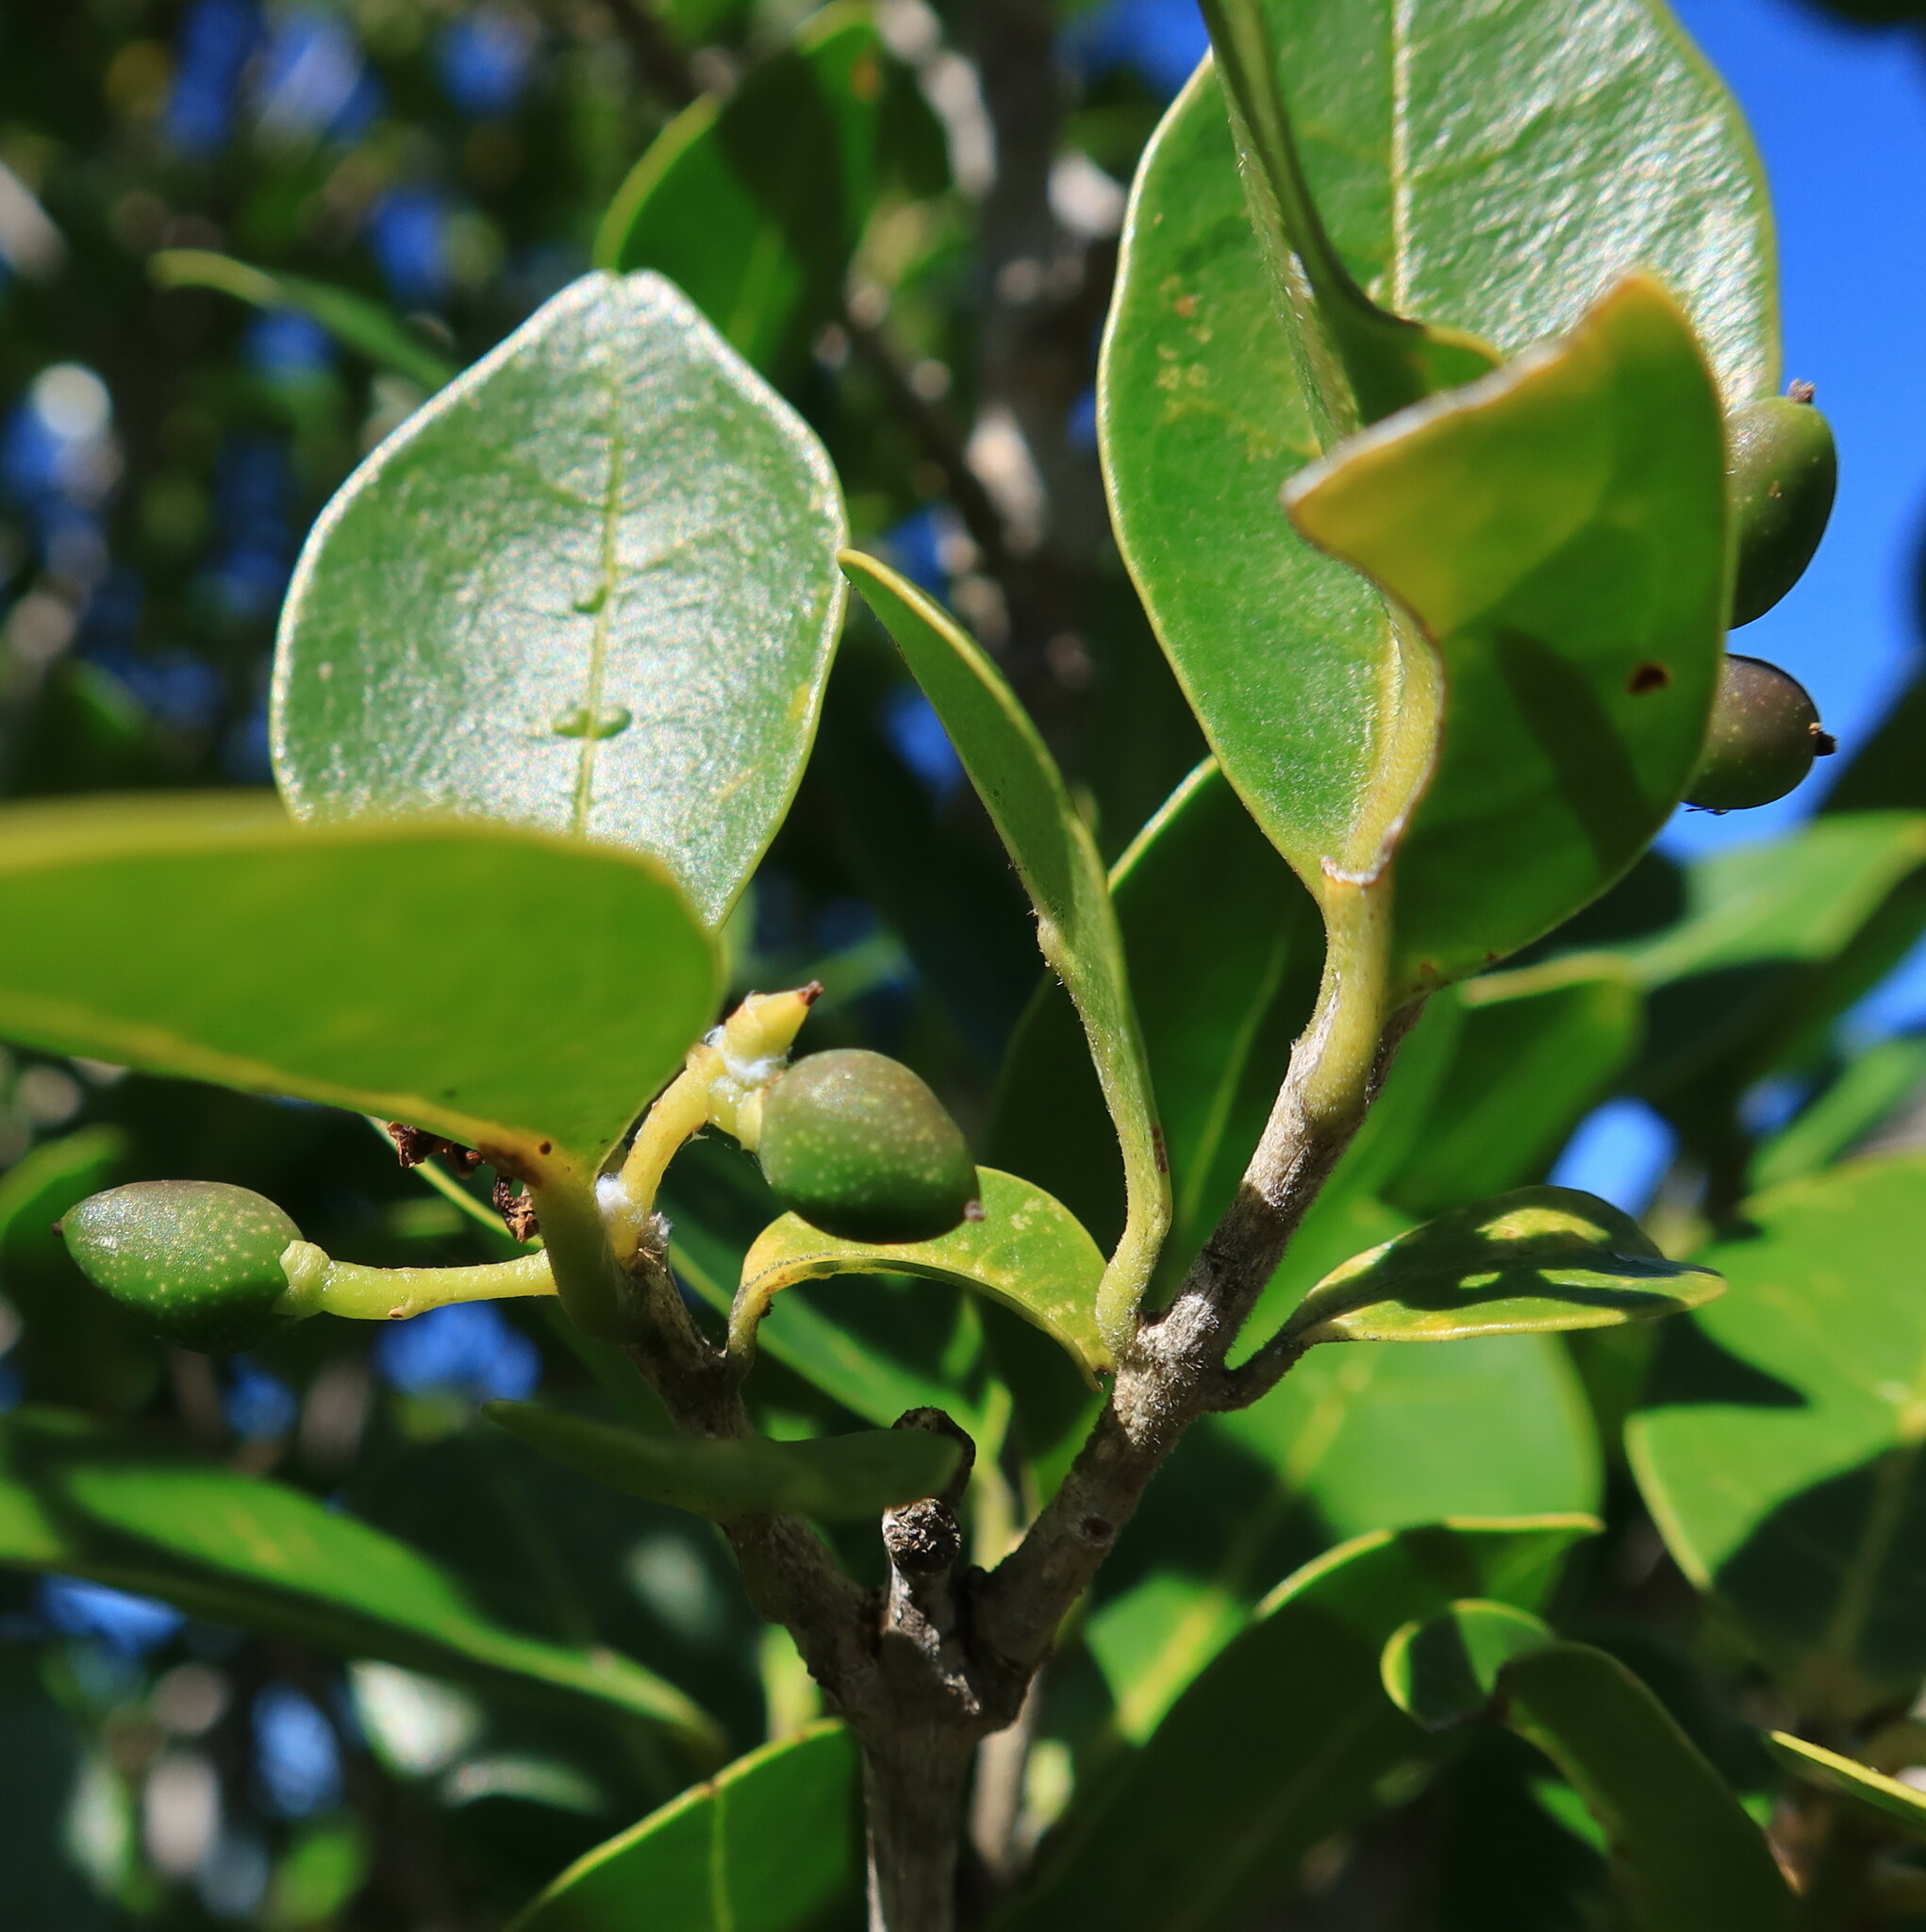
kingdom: Plantae
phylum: Tracheophyta
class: Magnoliopsida
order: Lamiales
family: Oleaceae
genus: Noronhia
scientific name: Noronhia foveolata
